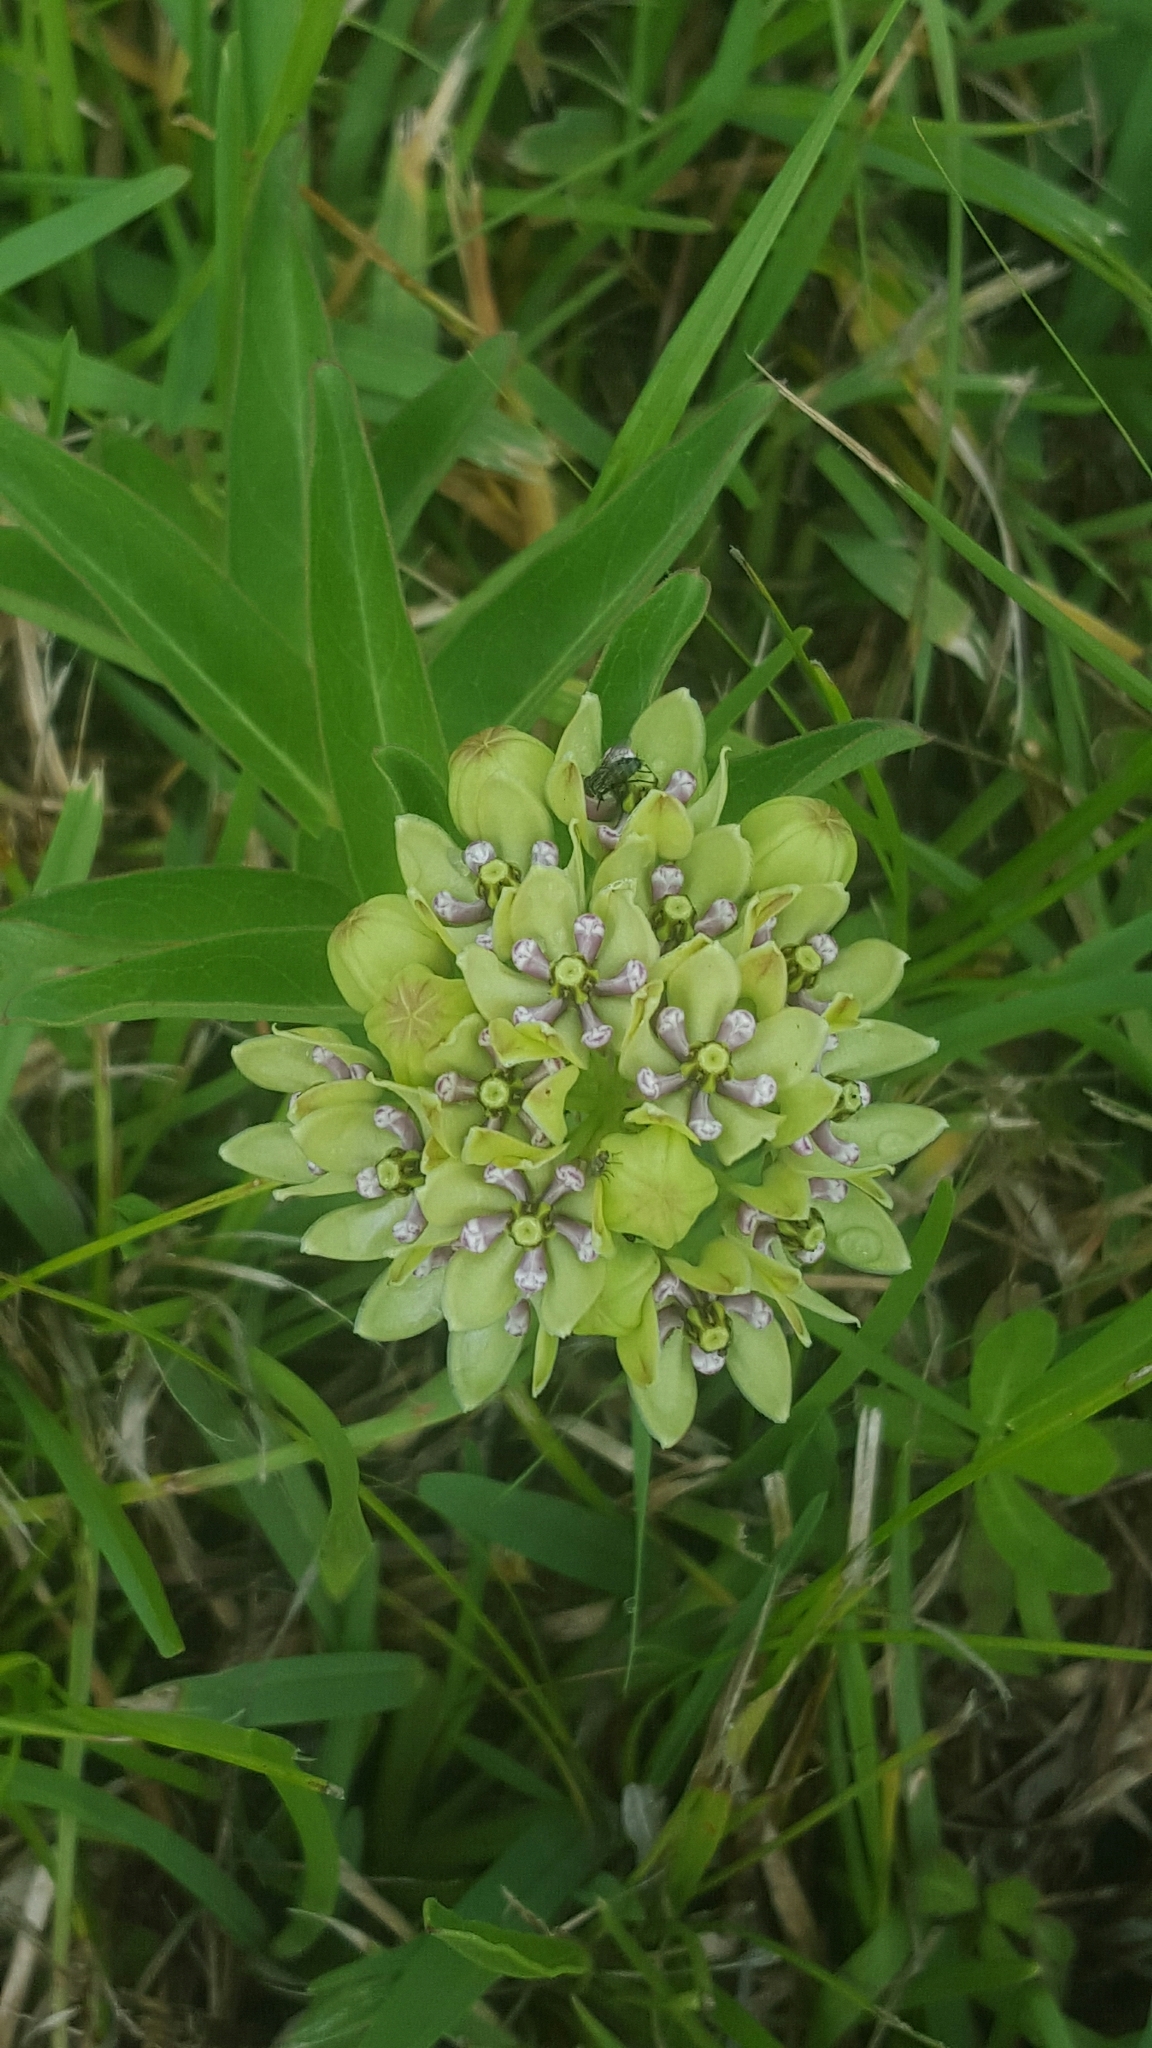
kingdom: Plantae
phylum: Tracheophyta
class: Magnoliopsida
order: Gentianales
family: Apocynaceae
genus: Asclepias
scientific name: Asclepias viridis
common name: Antelope-horns
